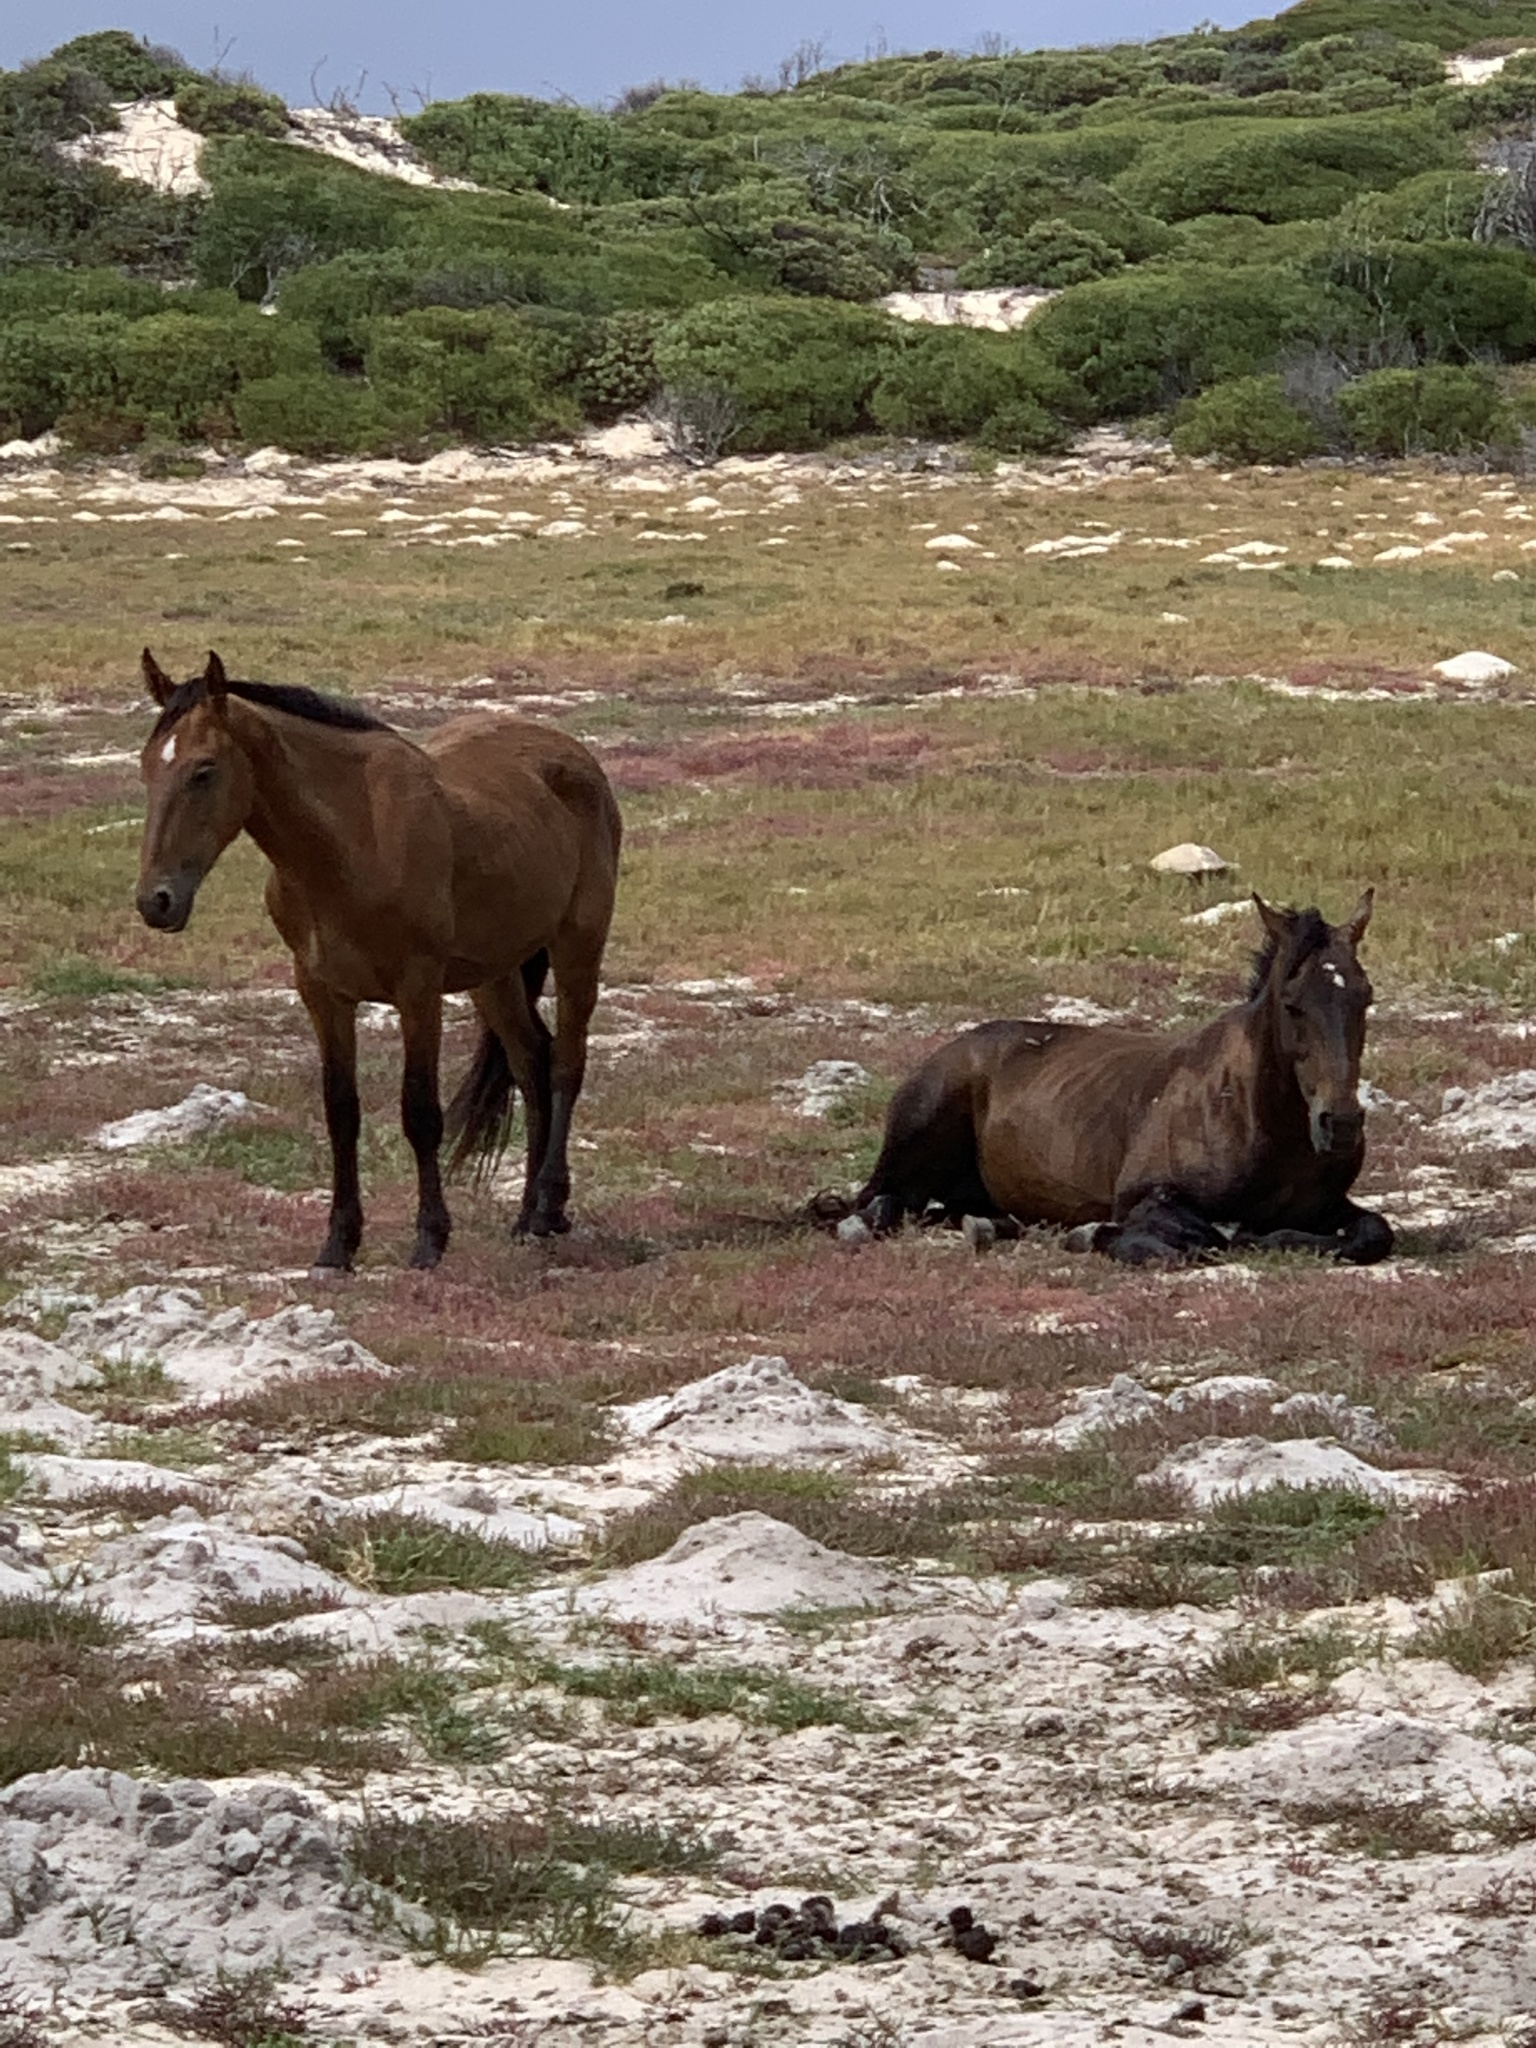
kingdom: Animalia
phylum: Chordata
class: Mammalia
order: Perissodactyla
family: Equidae
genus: Equus
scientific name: Equus caballus
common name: Horse
